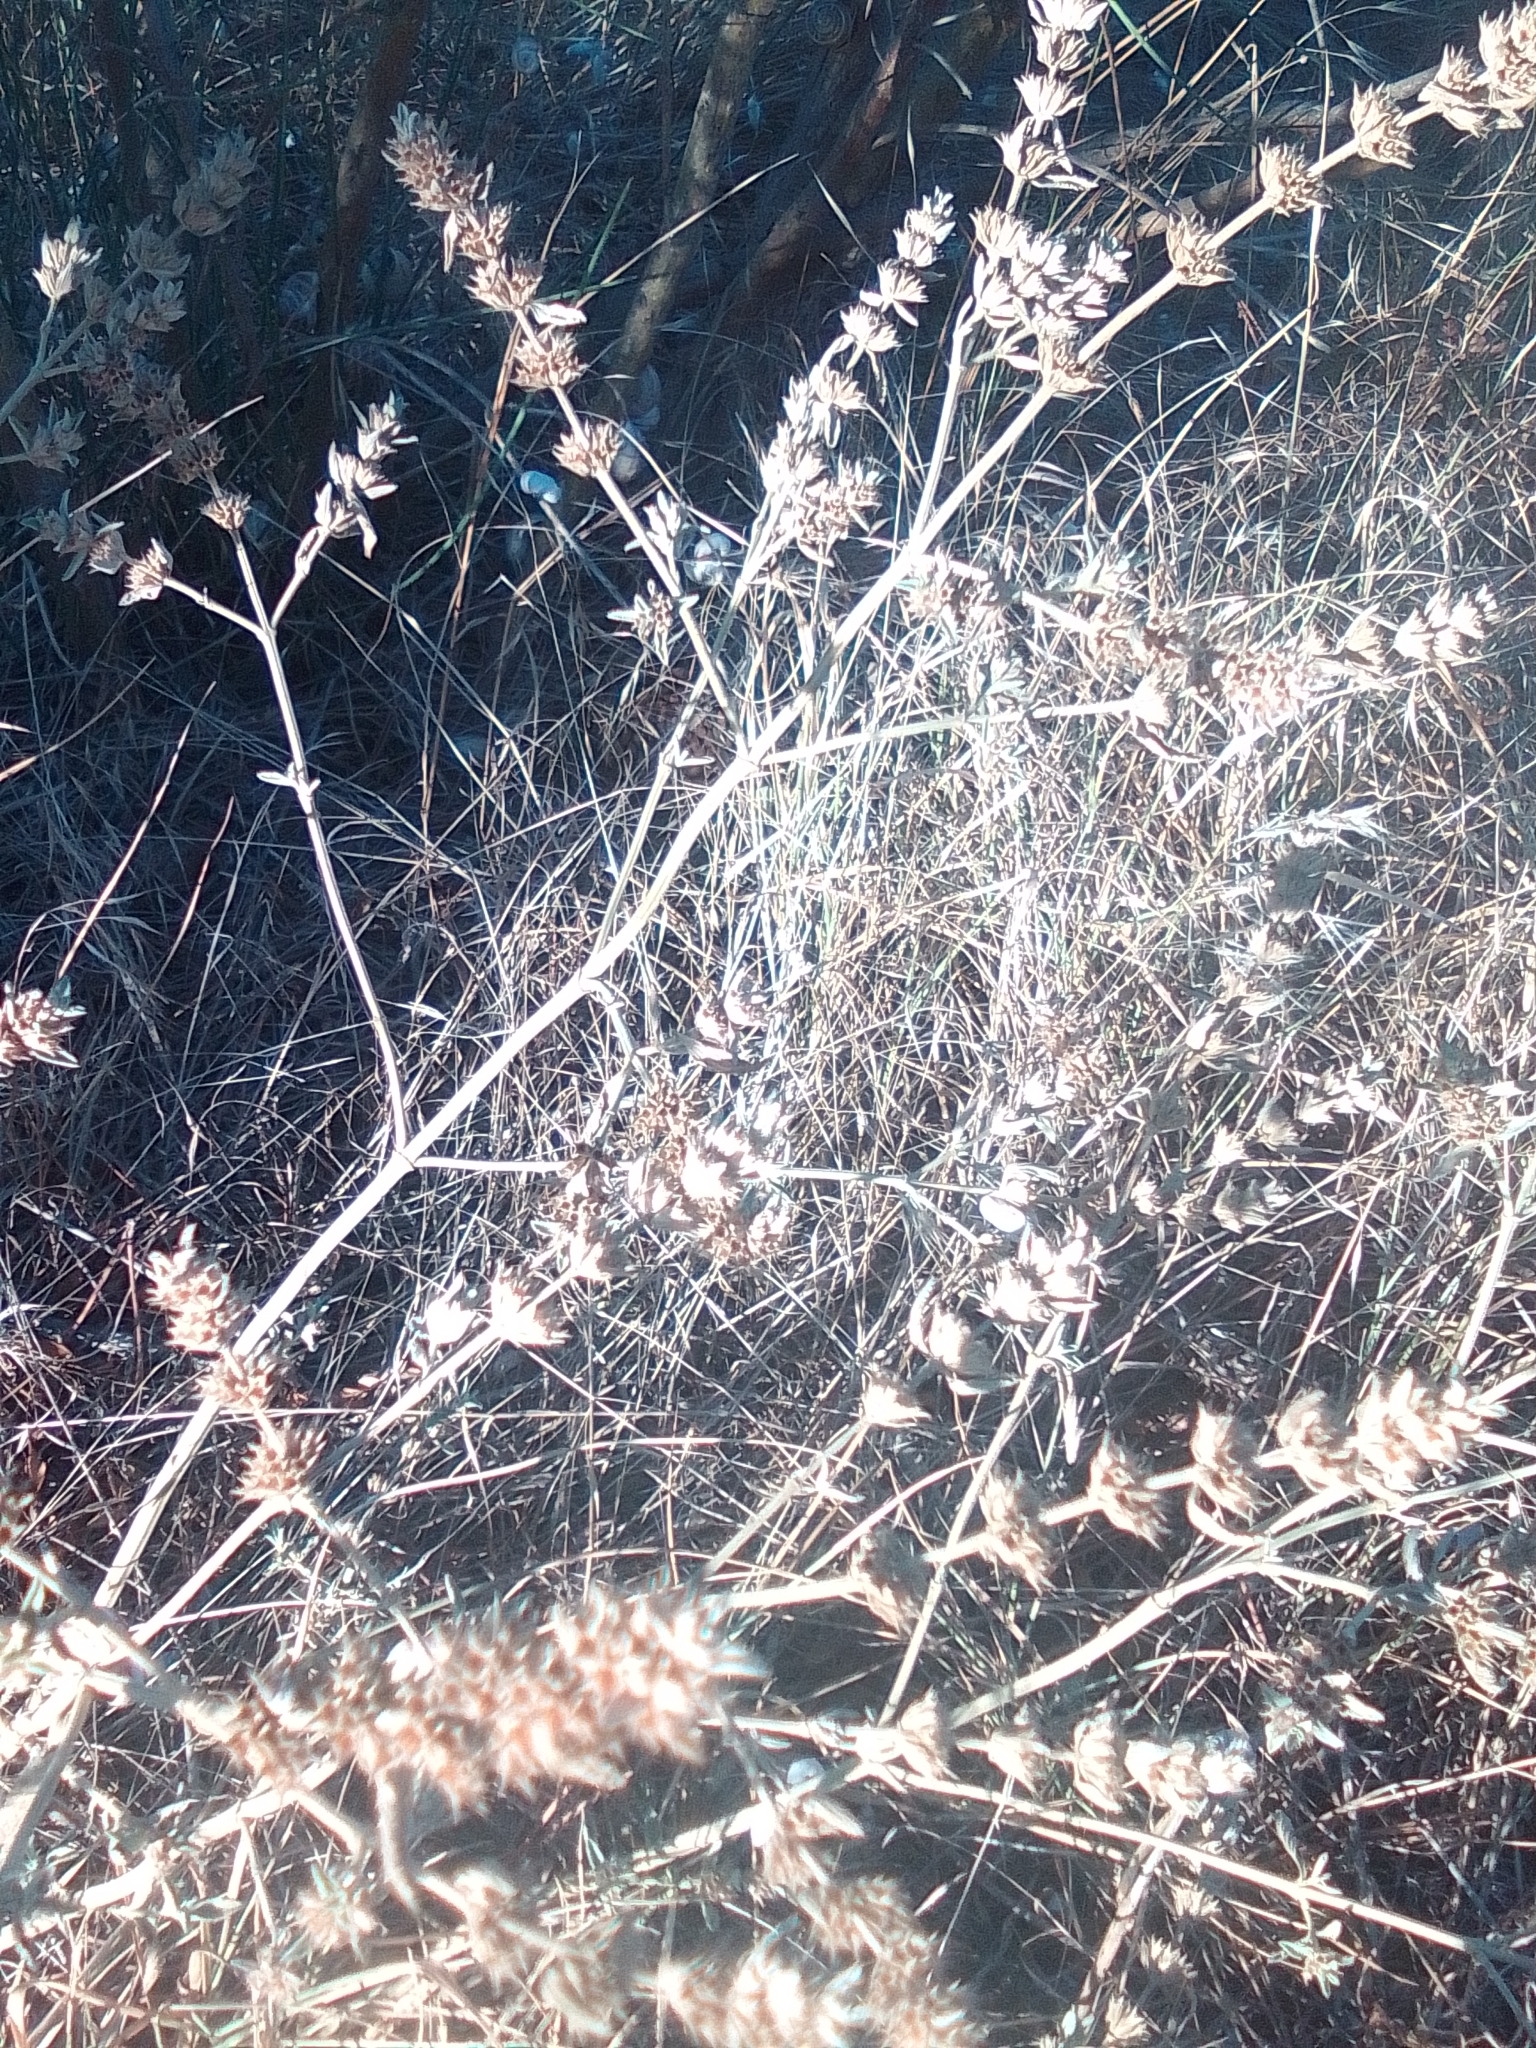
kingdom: Plantae
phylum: Tracheophyta
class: Magnoliopsida
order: Lamiales
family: Lamiaceae
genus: Marrubium
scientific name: Marrubium peregrinum
